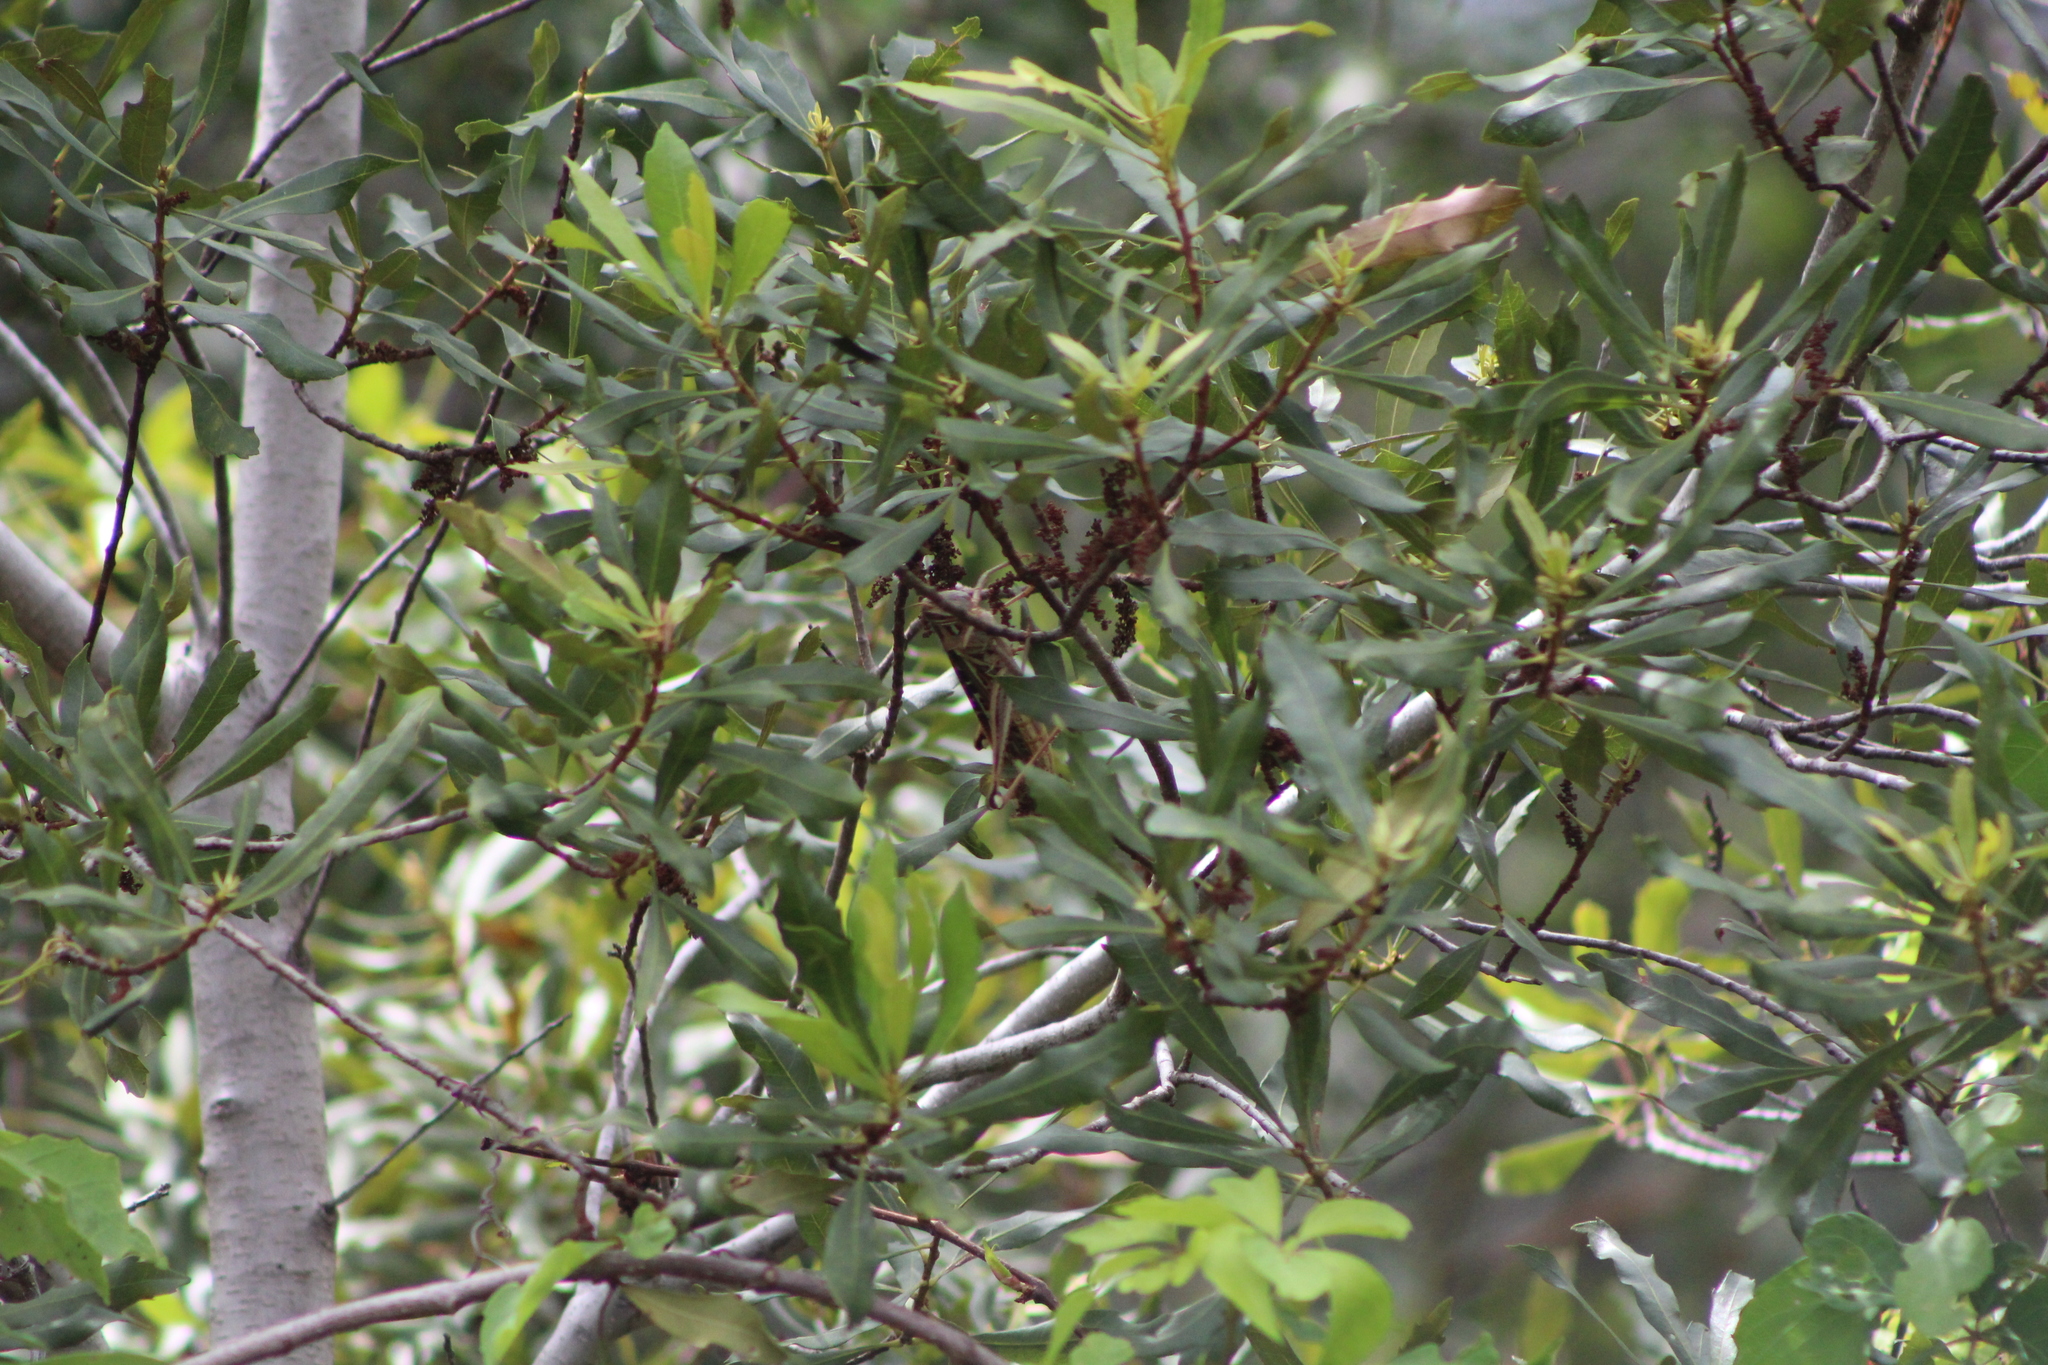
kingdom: Animalia
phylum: Arthropoda
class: Insecta
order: Orthoptera
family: Acrididae
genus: Schistocerca
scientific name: Schistocerca americana
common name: American bird locust
